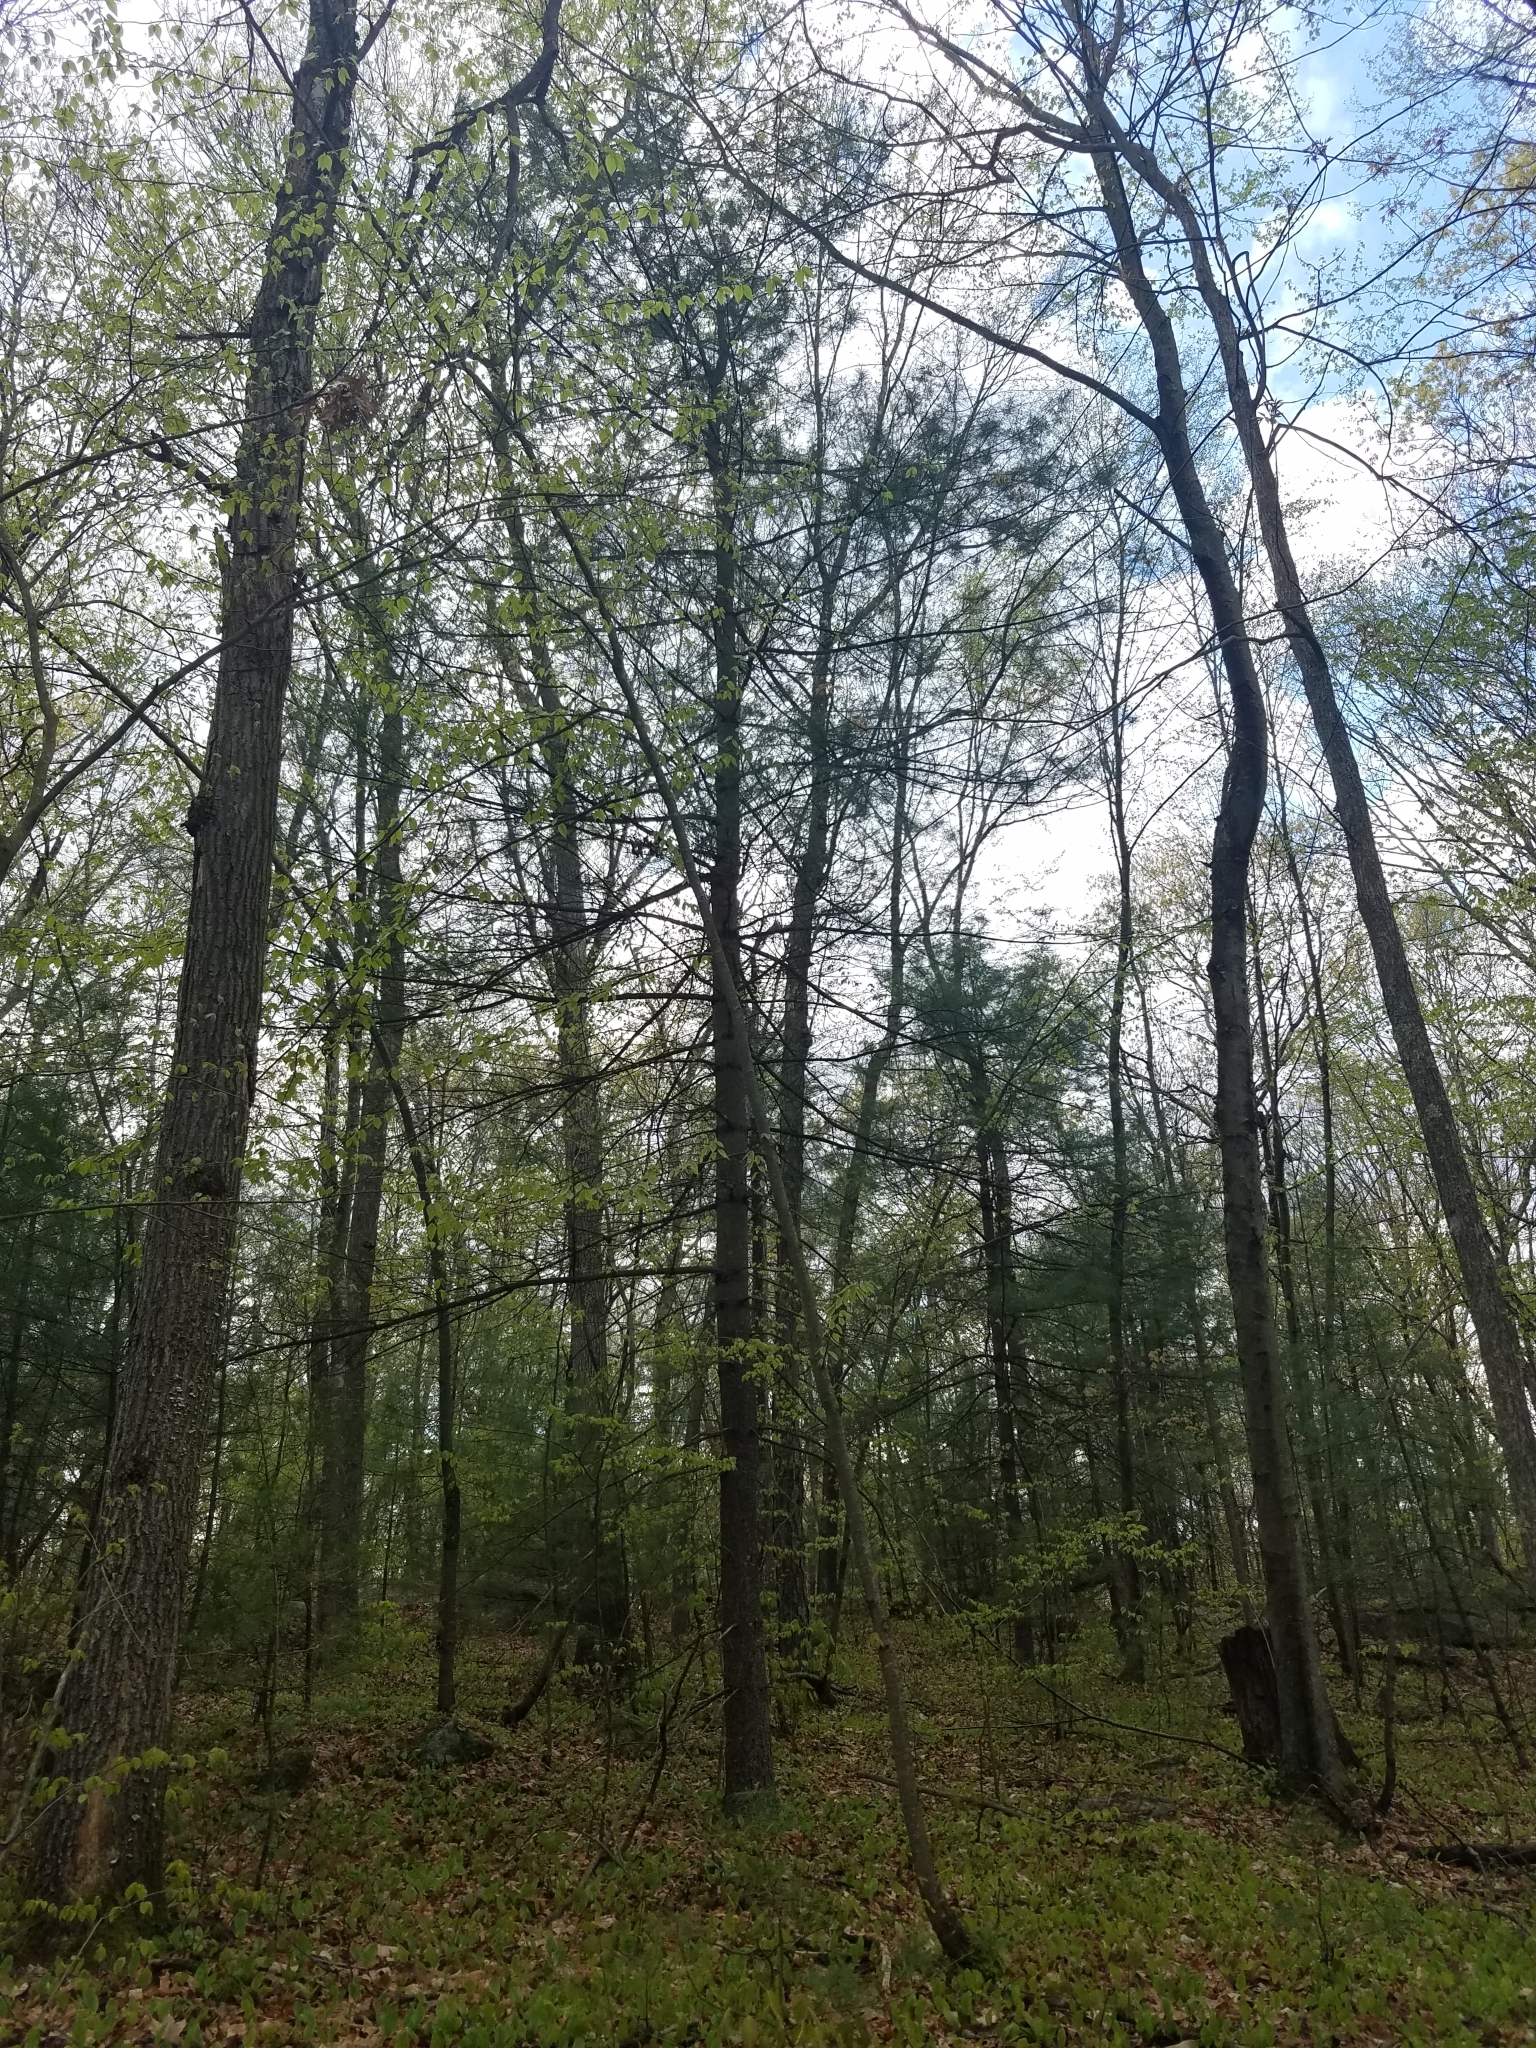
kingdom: Plantae
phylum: Tracheophyta
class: Pinopsida
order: Pinales
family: Pinaceae
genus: Pinus
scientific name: Pinus strobus
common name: Weymouth pine
